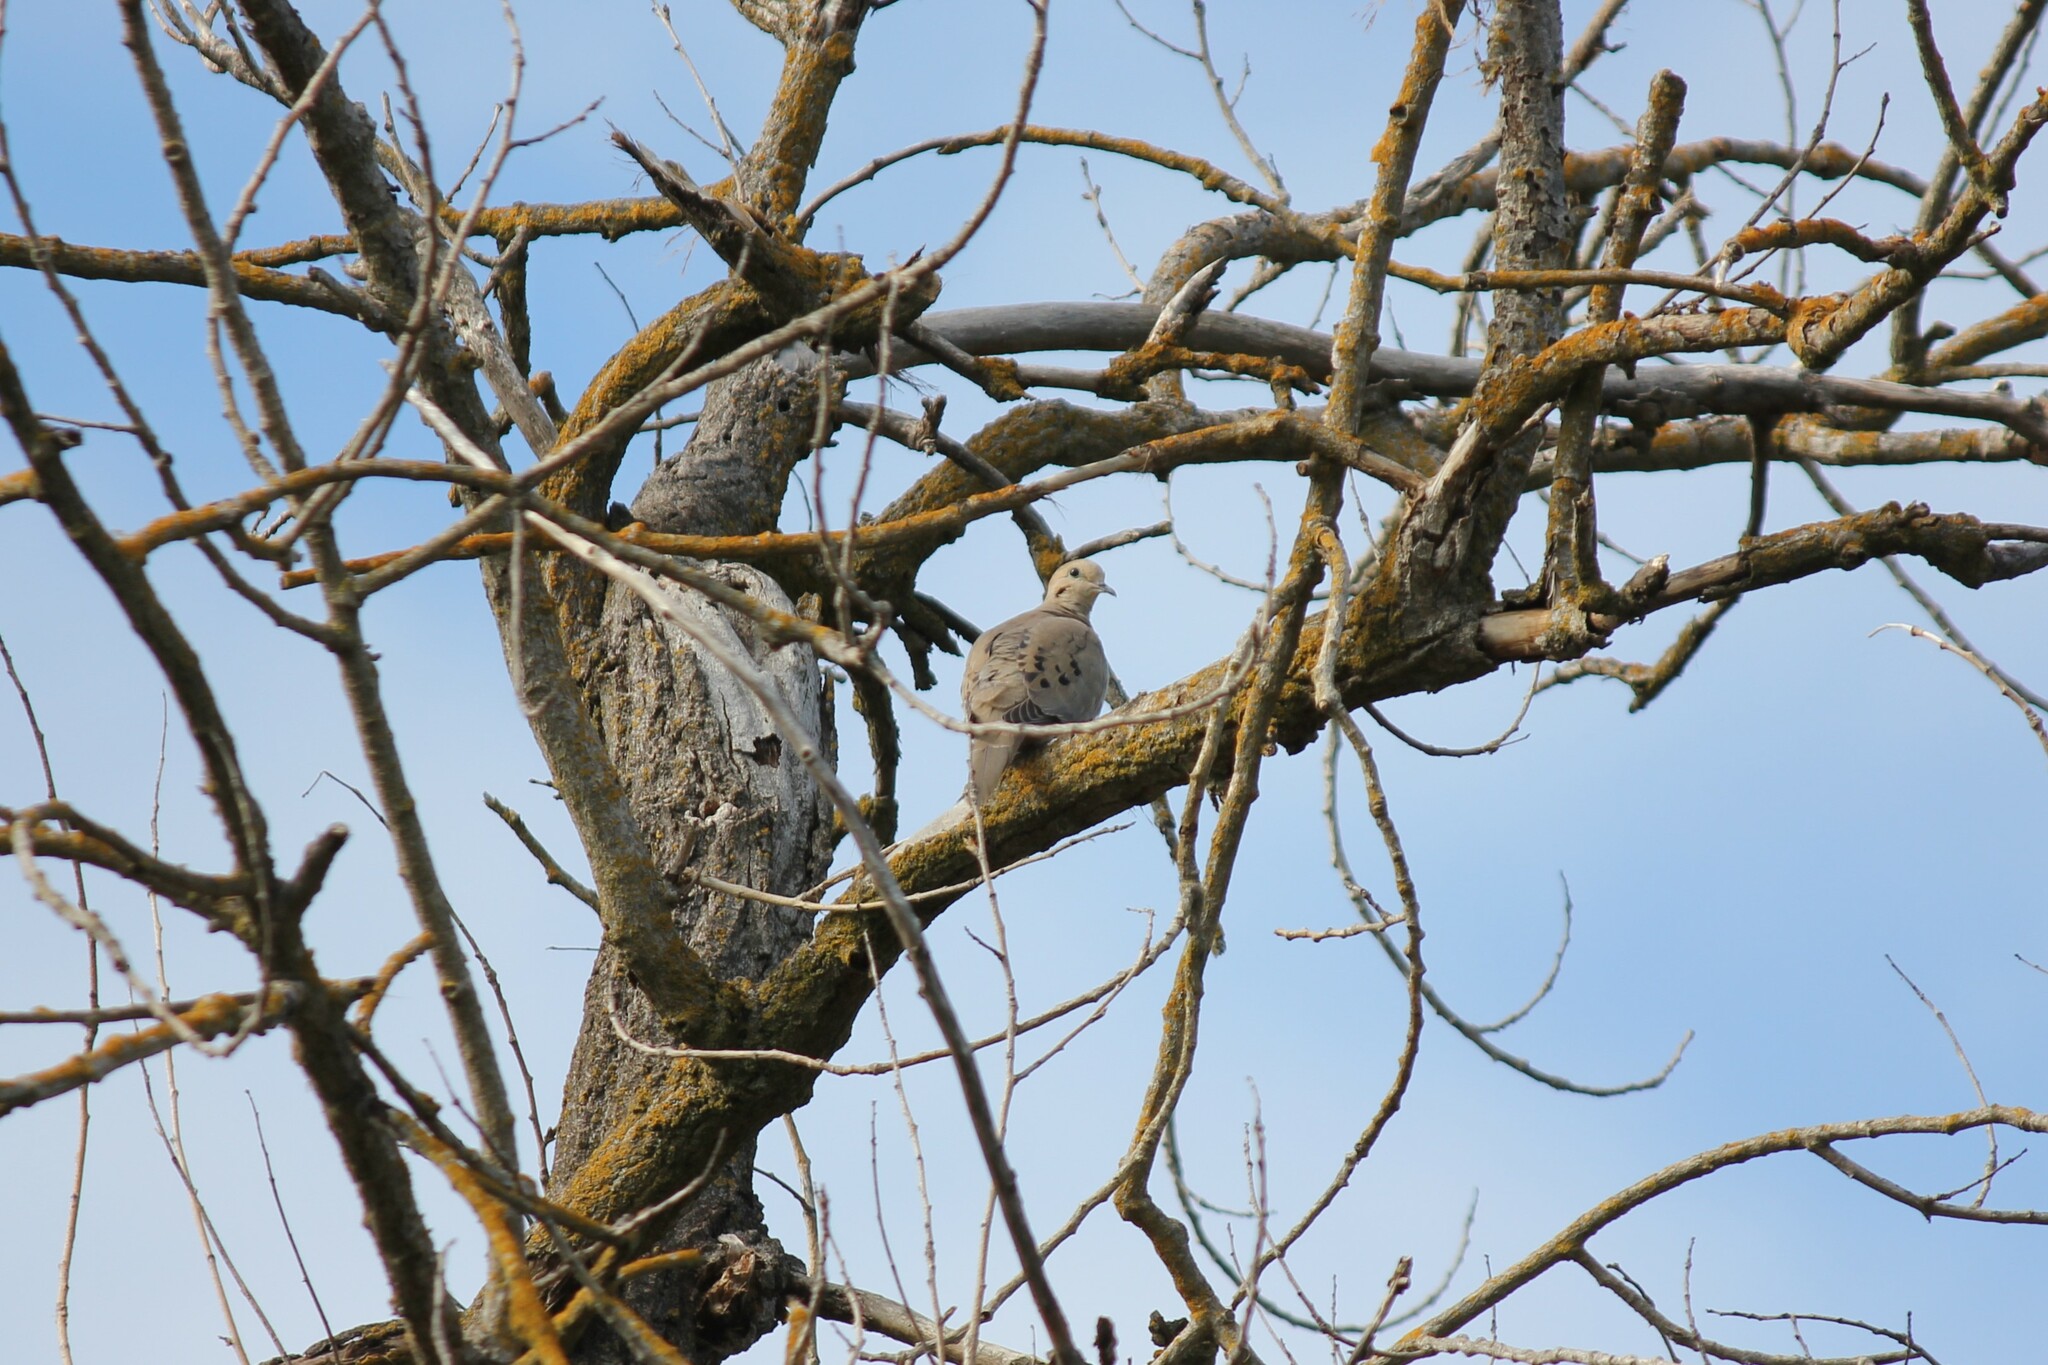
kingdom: Animalia
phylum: Chordata
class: Aves
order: Columbiformes
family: Columbidae
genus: Zenaida
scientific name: Zenaida macroura
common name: Mourning dove
